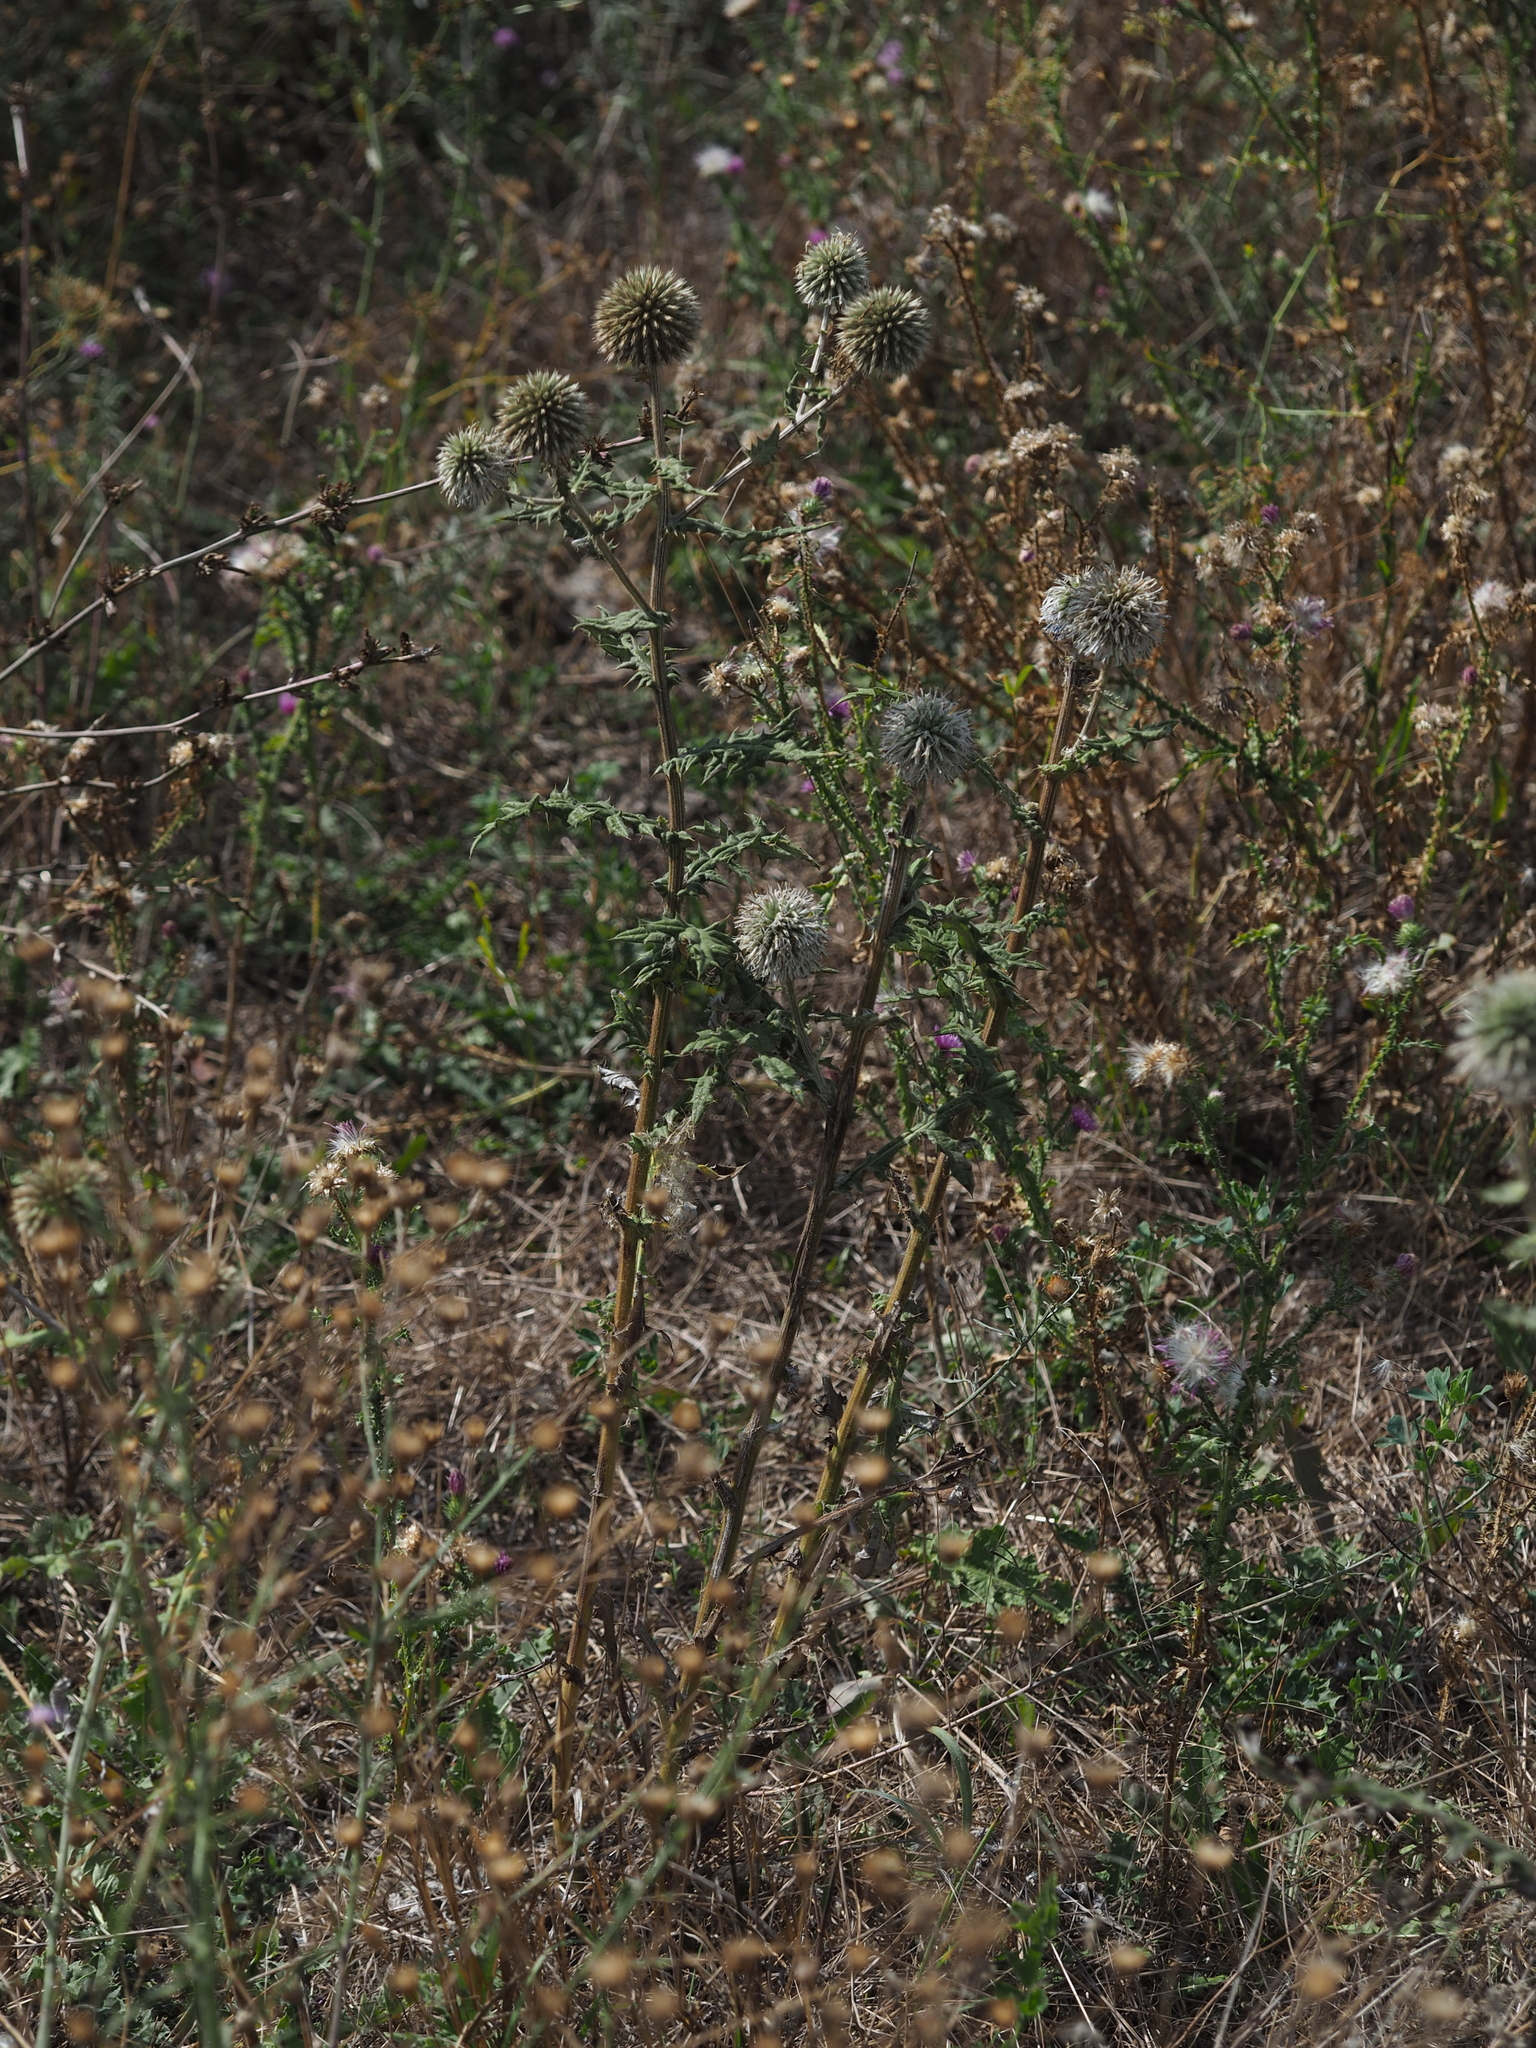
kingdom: Plantae
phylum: Tracheophyta
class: Magnoliopsida
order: Asterales
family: Asteraceae
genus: Echinops
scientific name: Echinops sphaerocephalus
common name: Glandular globe-thistle
